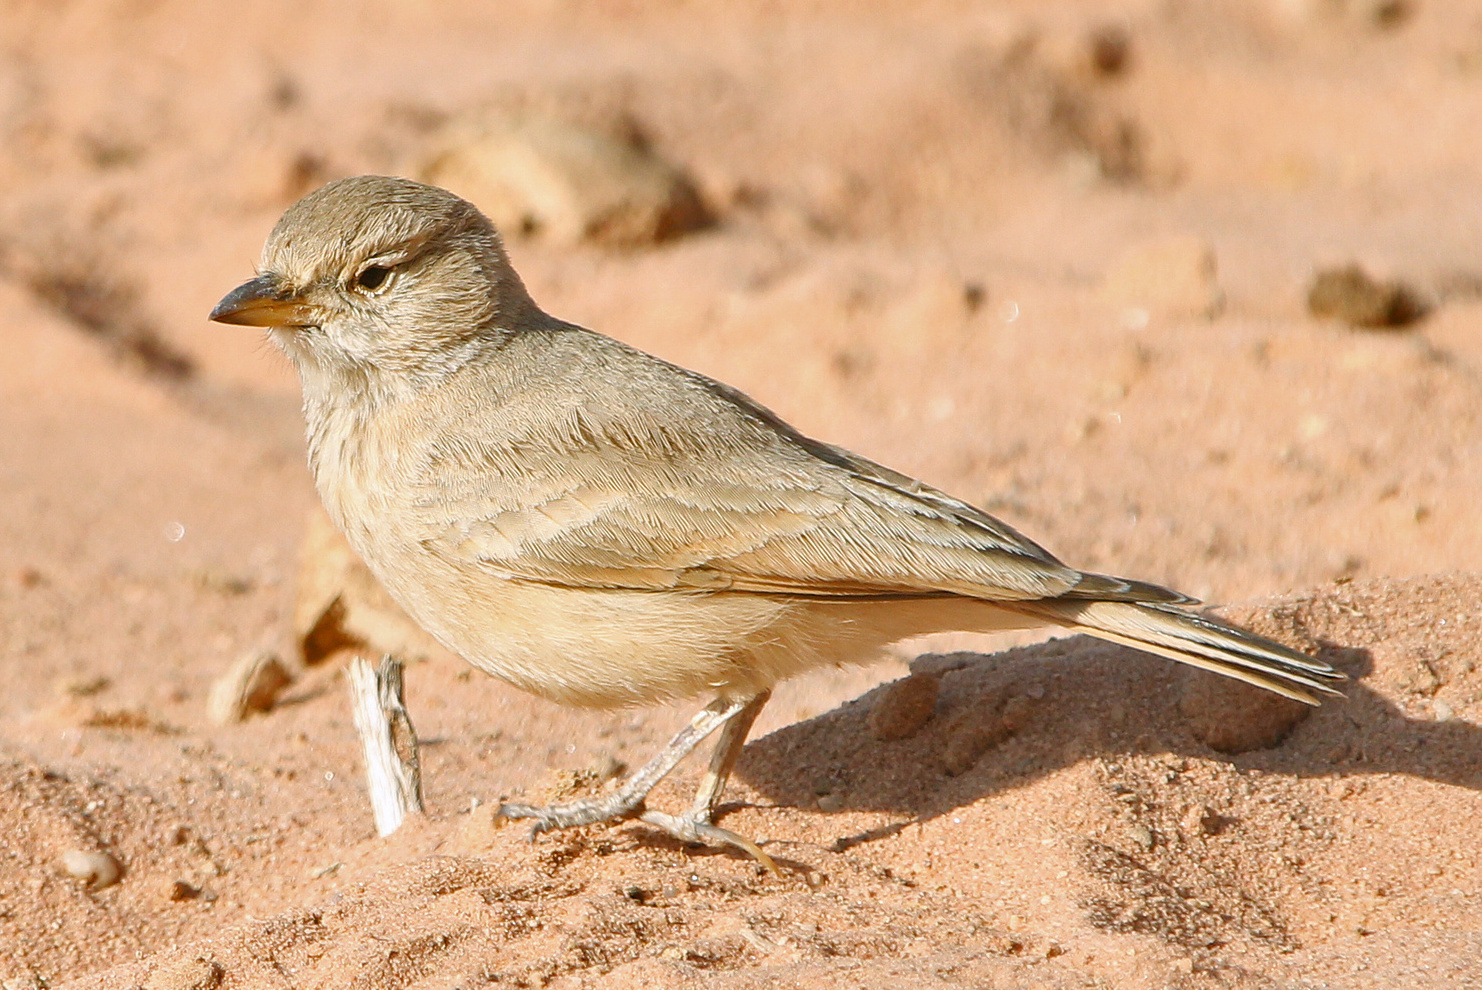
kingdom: Animalia
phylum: Chordata
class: Aves
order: Passeriformes
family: Alaudidae
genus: Ammomanes
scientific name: Ammomanes deserti
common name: Desert lark
